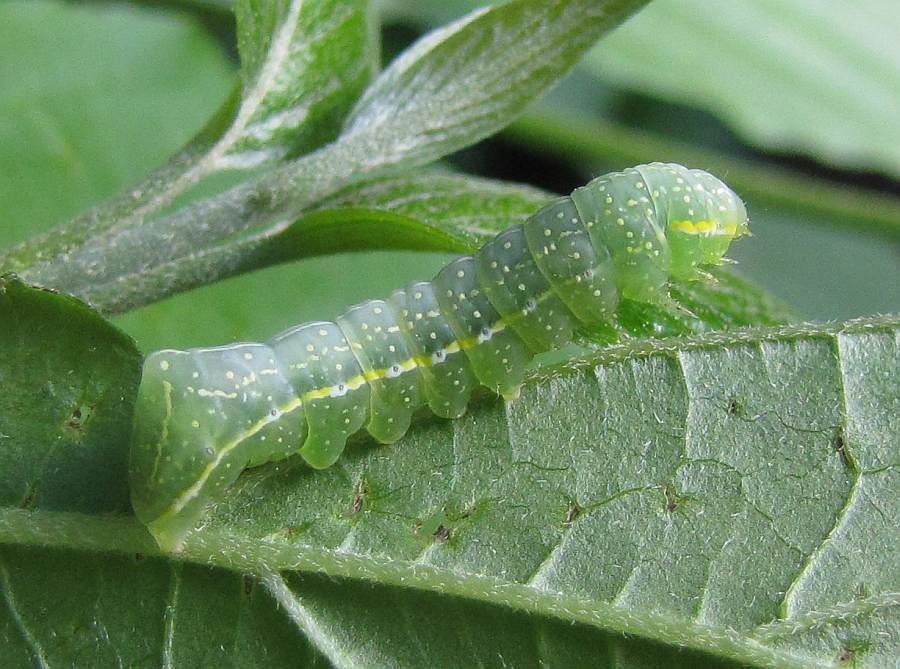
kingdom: Animalia
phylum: Arthropoda
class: Insecta
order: Lepidoptera
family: Noctuidae
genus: Amphipyra
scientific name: Amphipyra pyramidoides
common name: American copper underwing
